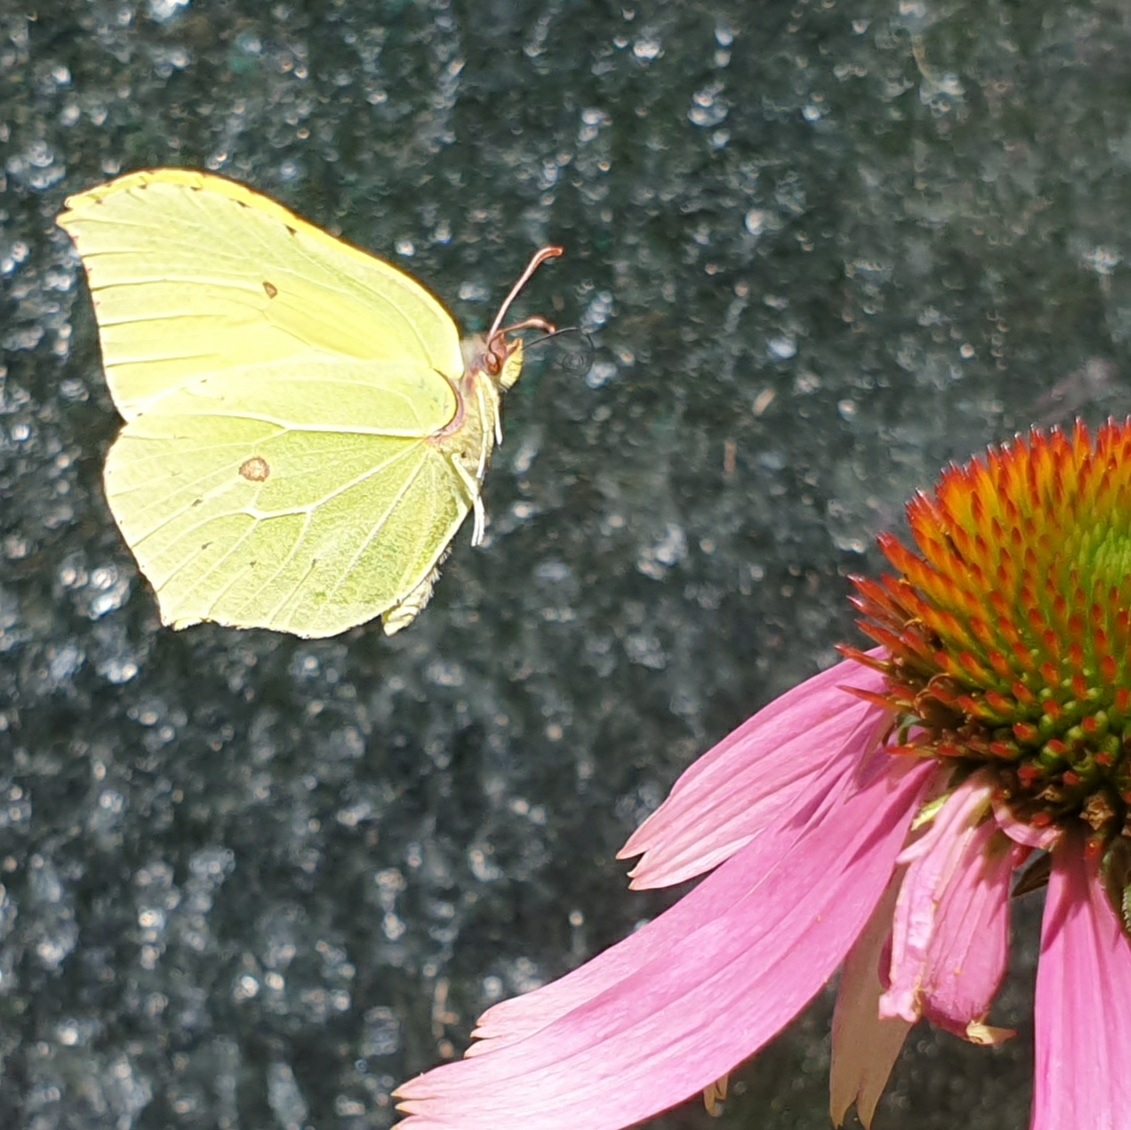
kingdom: Animalia
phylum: Arthropoda
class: Insecta
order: Lepidoptera
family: Pieridae
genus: Gonepteryx
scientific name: Gonepteryx rhamni
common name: Brimstone
